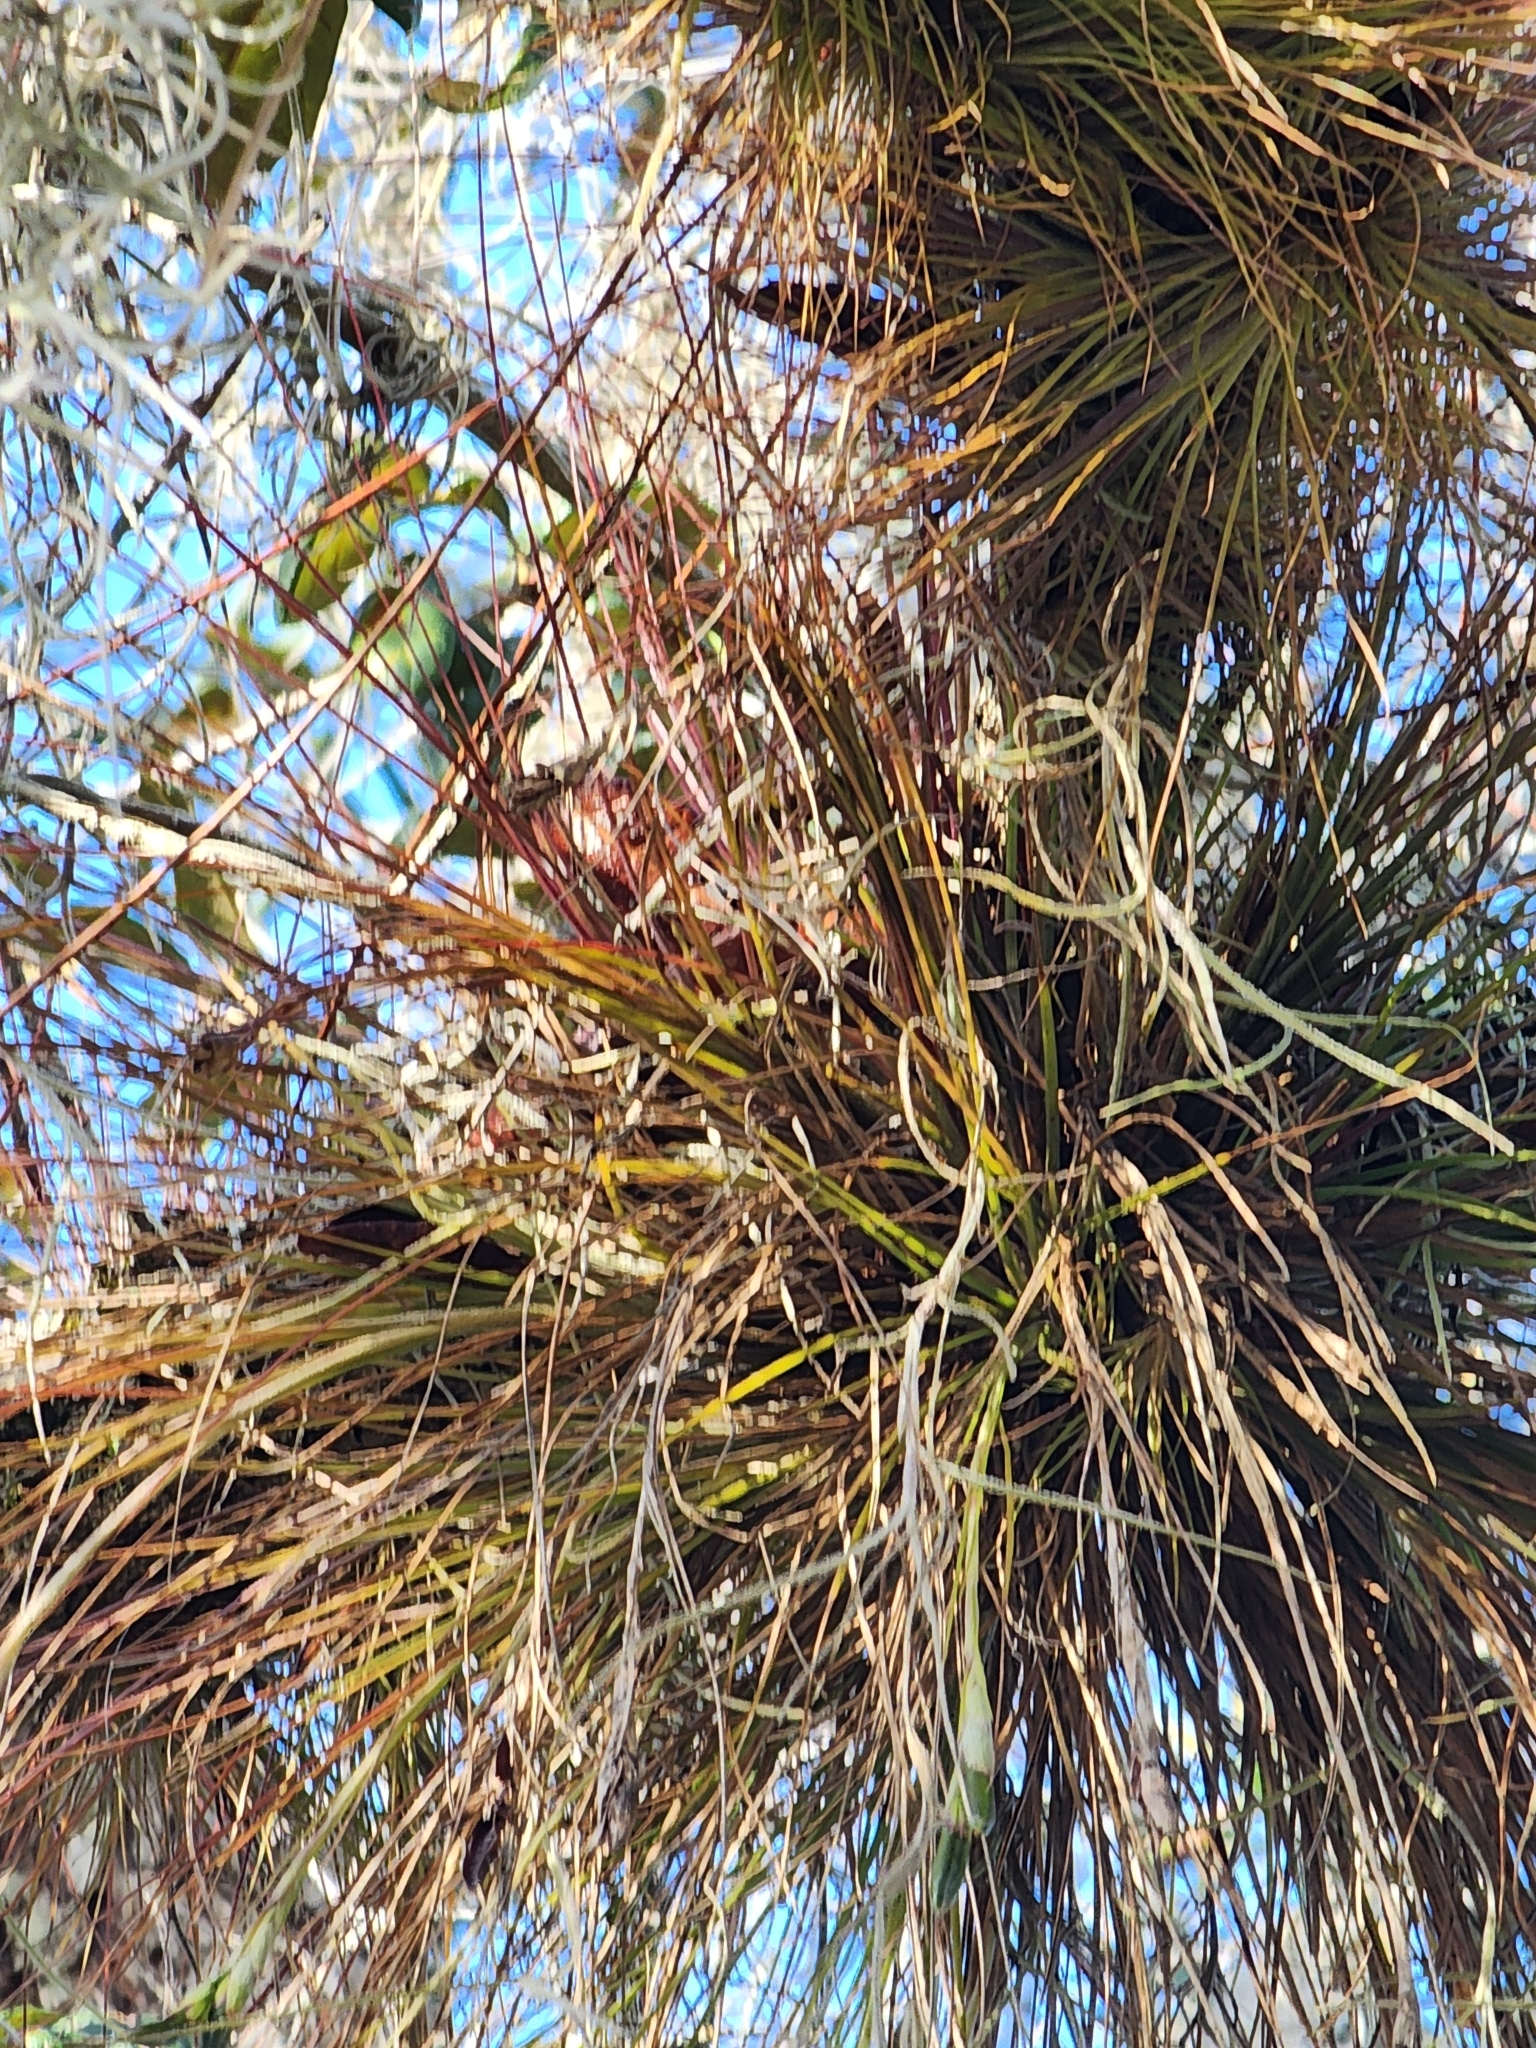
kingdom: Plantae
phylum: Tracheophyta
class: Liliopsida
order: Poales
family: Bromeliaceae
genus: Tillandsia
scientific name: Tillandsia setacea
